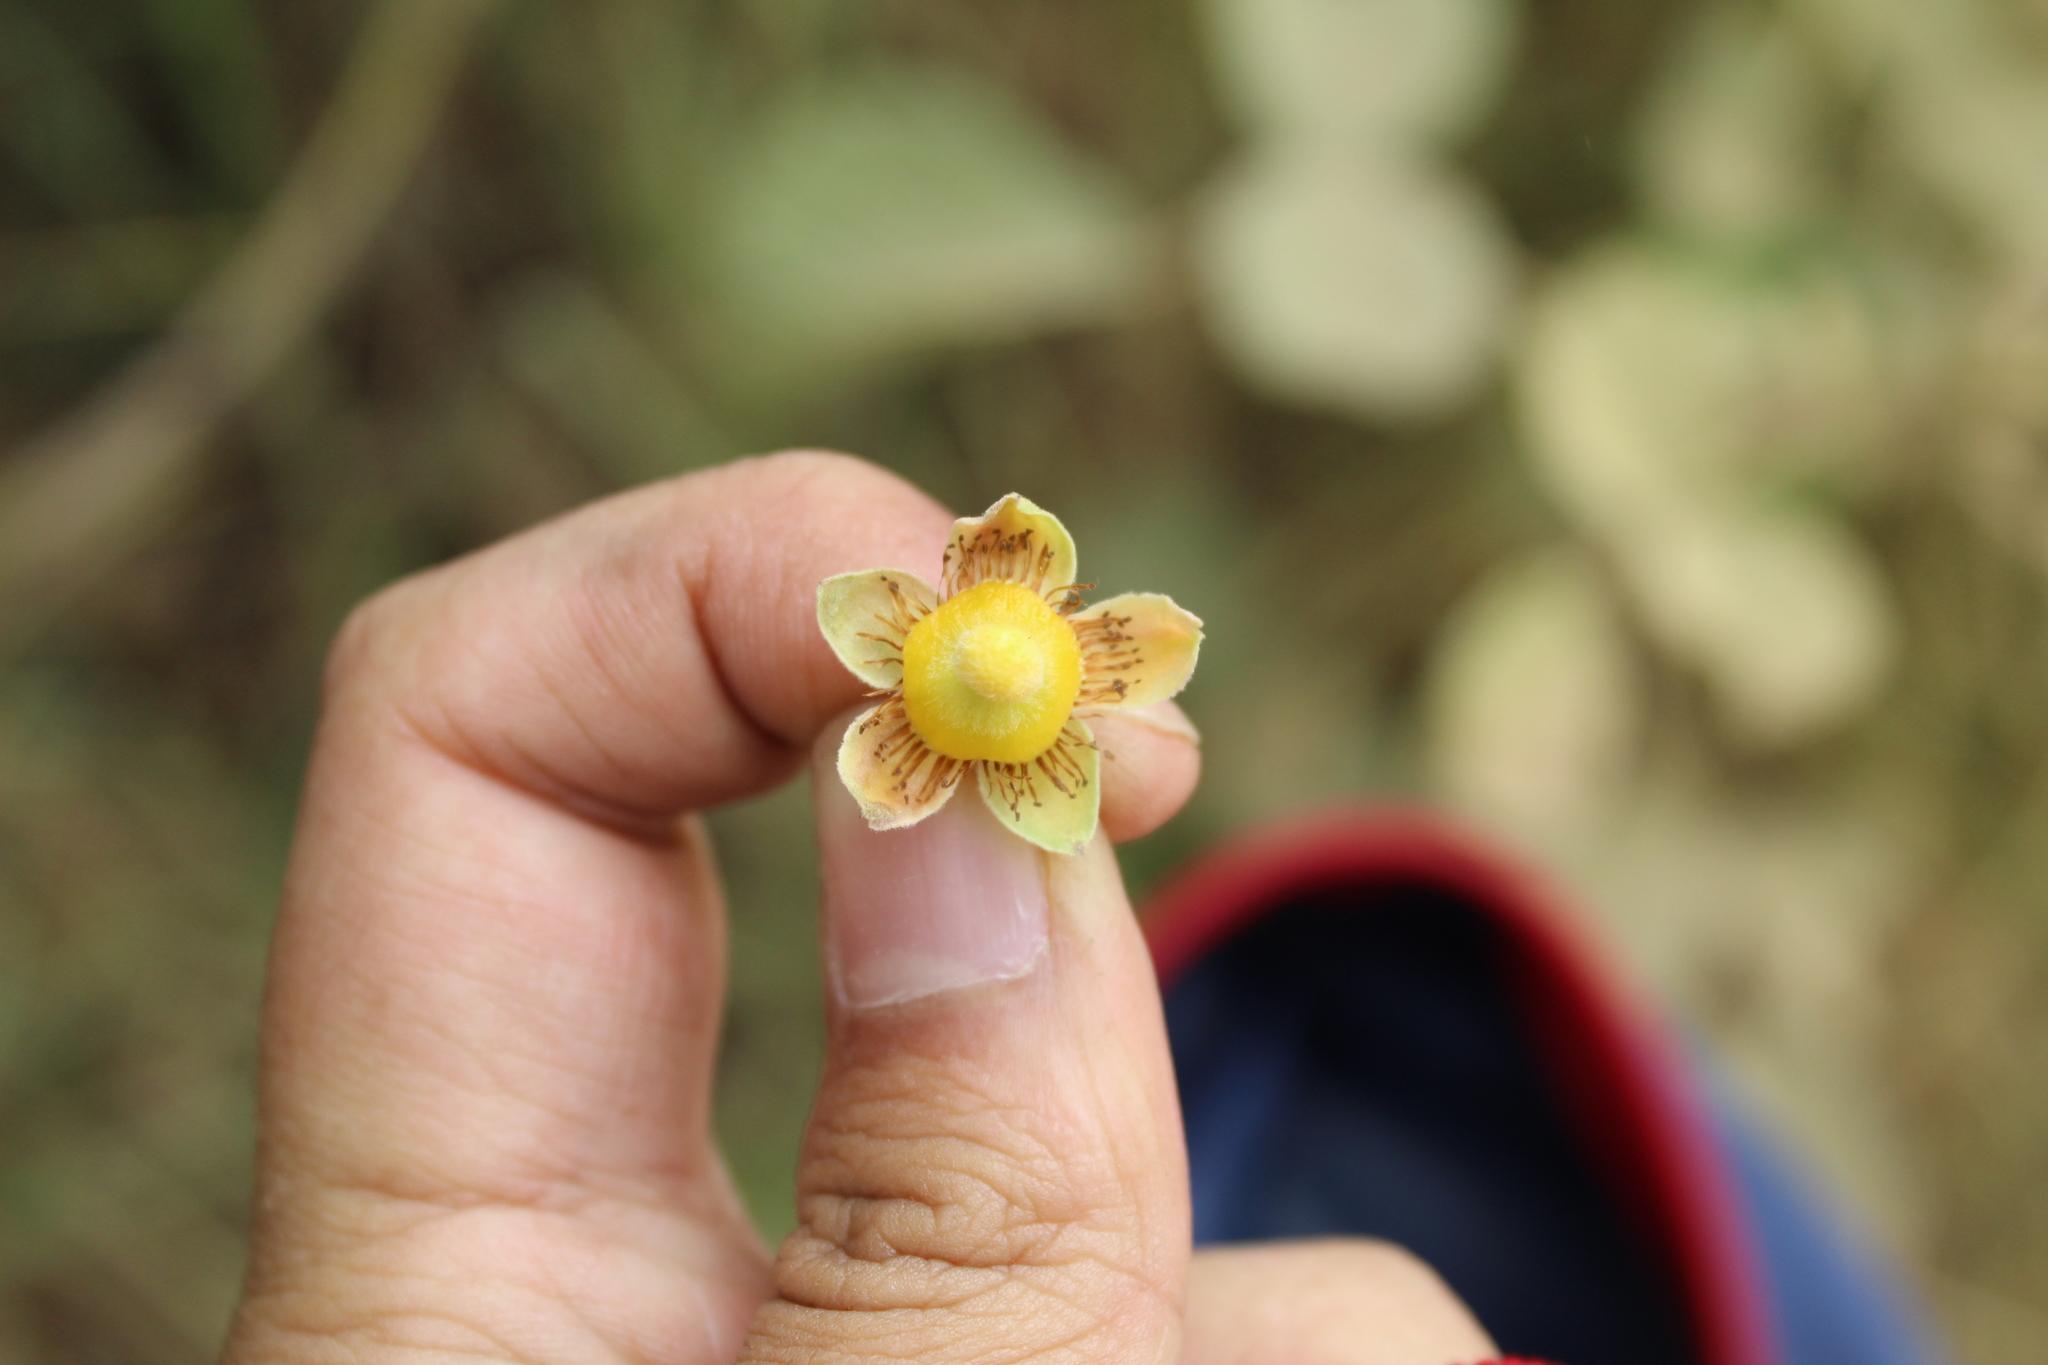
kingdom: Plantae
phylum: Tracheophyta
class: Magnoliopsida
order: Rosales
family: Rosaceae
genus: Rubus
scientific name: Rubus ellipticus
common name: Cheeseberry
